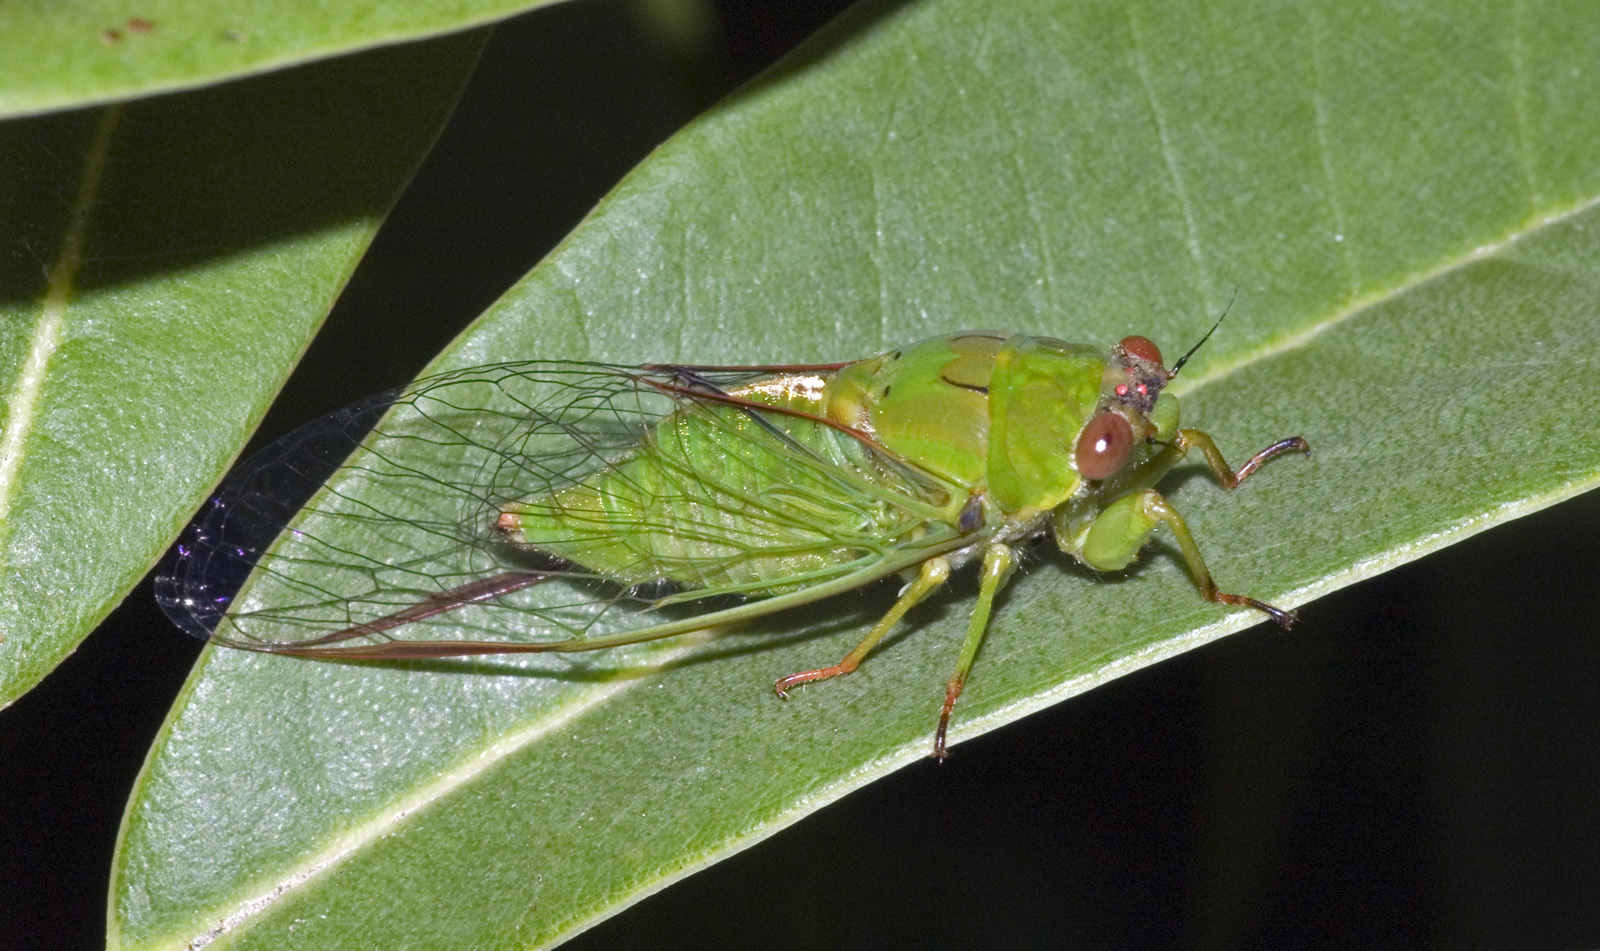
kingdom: Animalia
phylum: Arthropoda
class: Insecta
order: Hemiptera
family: Cicadidae
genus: Kikihia
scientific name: Kikihia ochrina
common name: April green cicada
